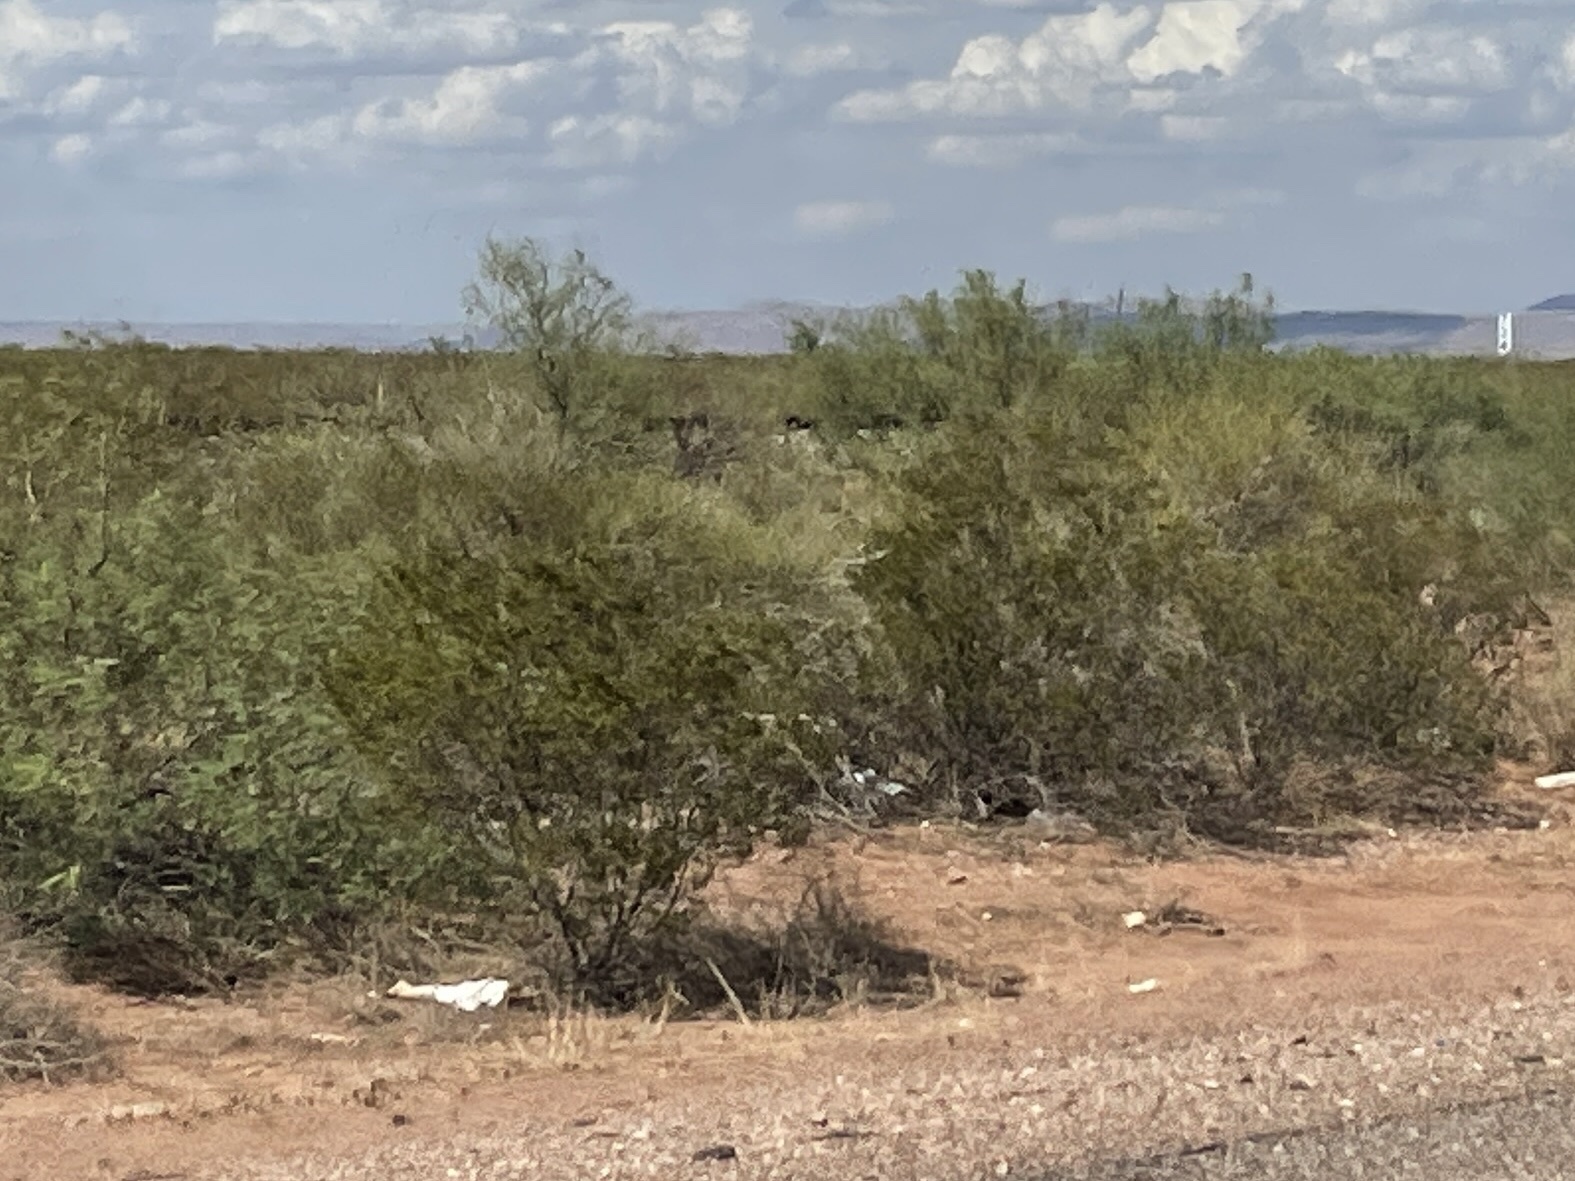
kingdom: Plantae
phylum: Tracheophyta
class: Magnoliopsida
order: Zygophyllales
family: Zygophyllaceae
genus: Larrea
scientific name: Larrea tridentata
